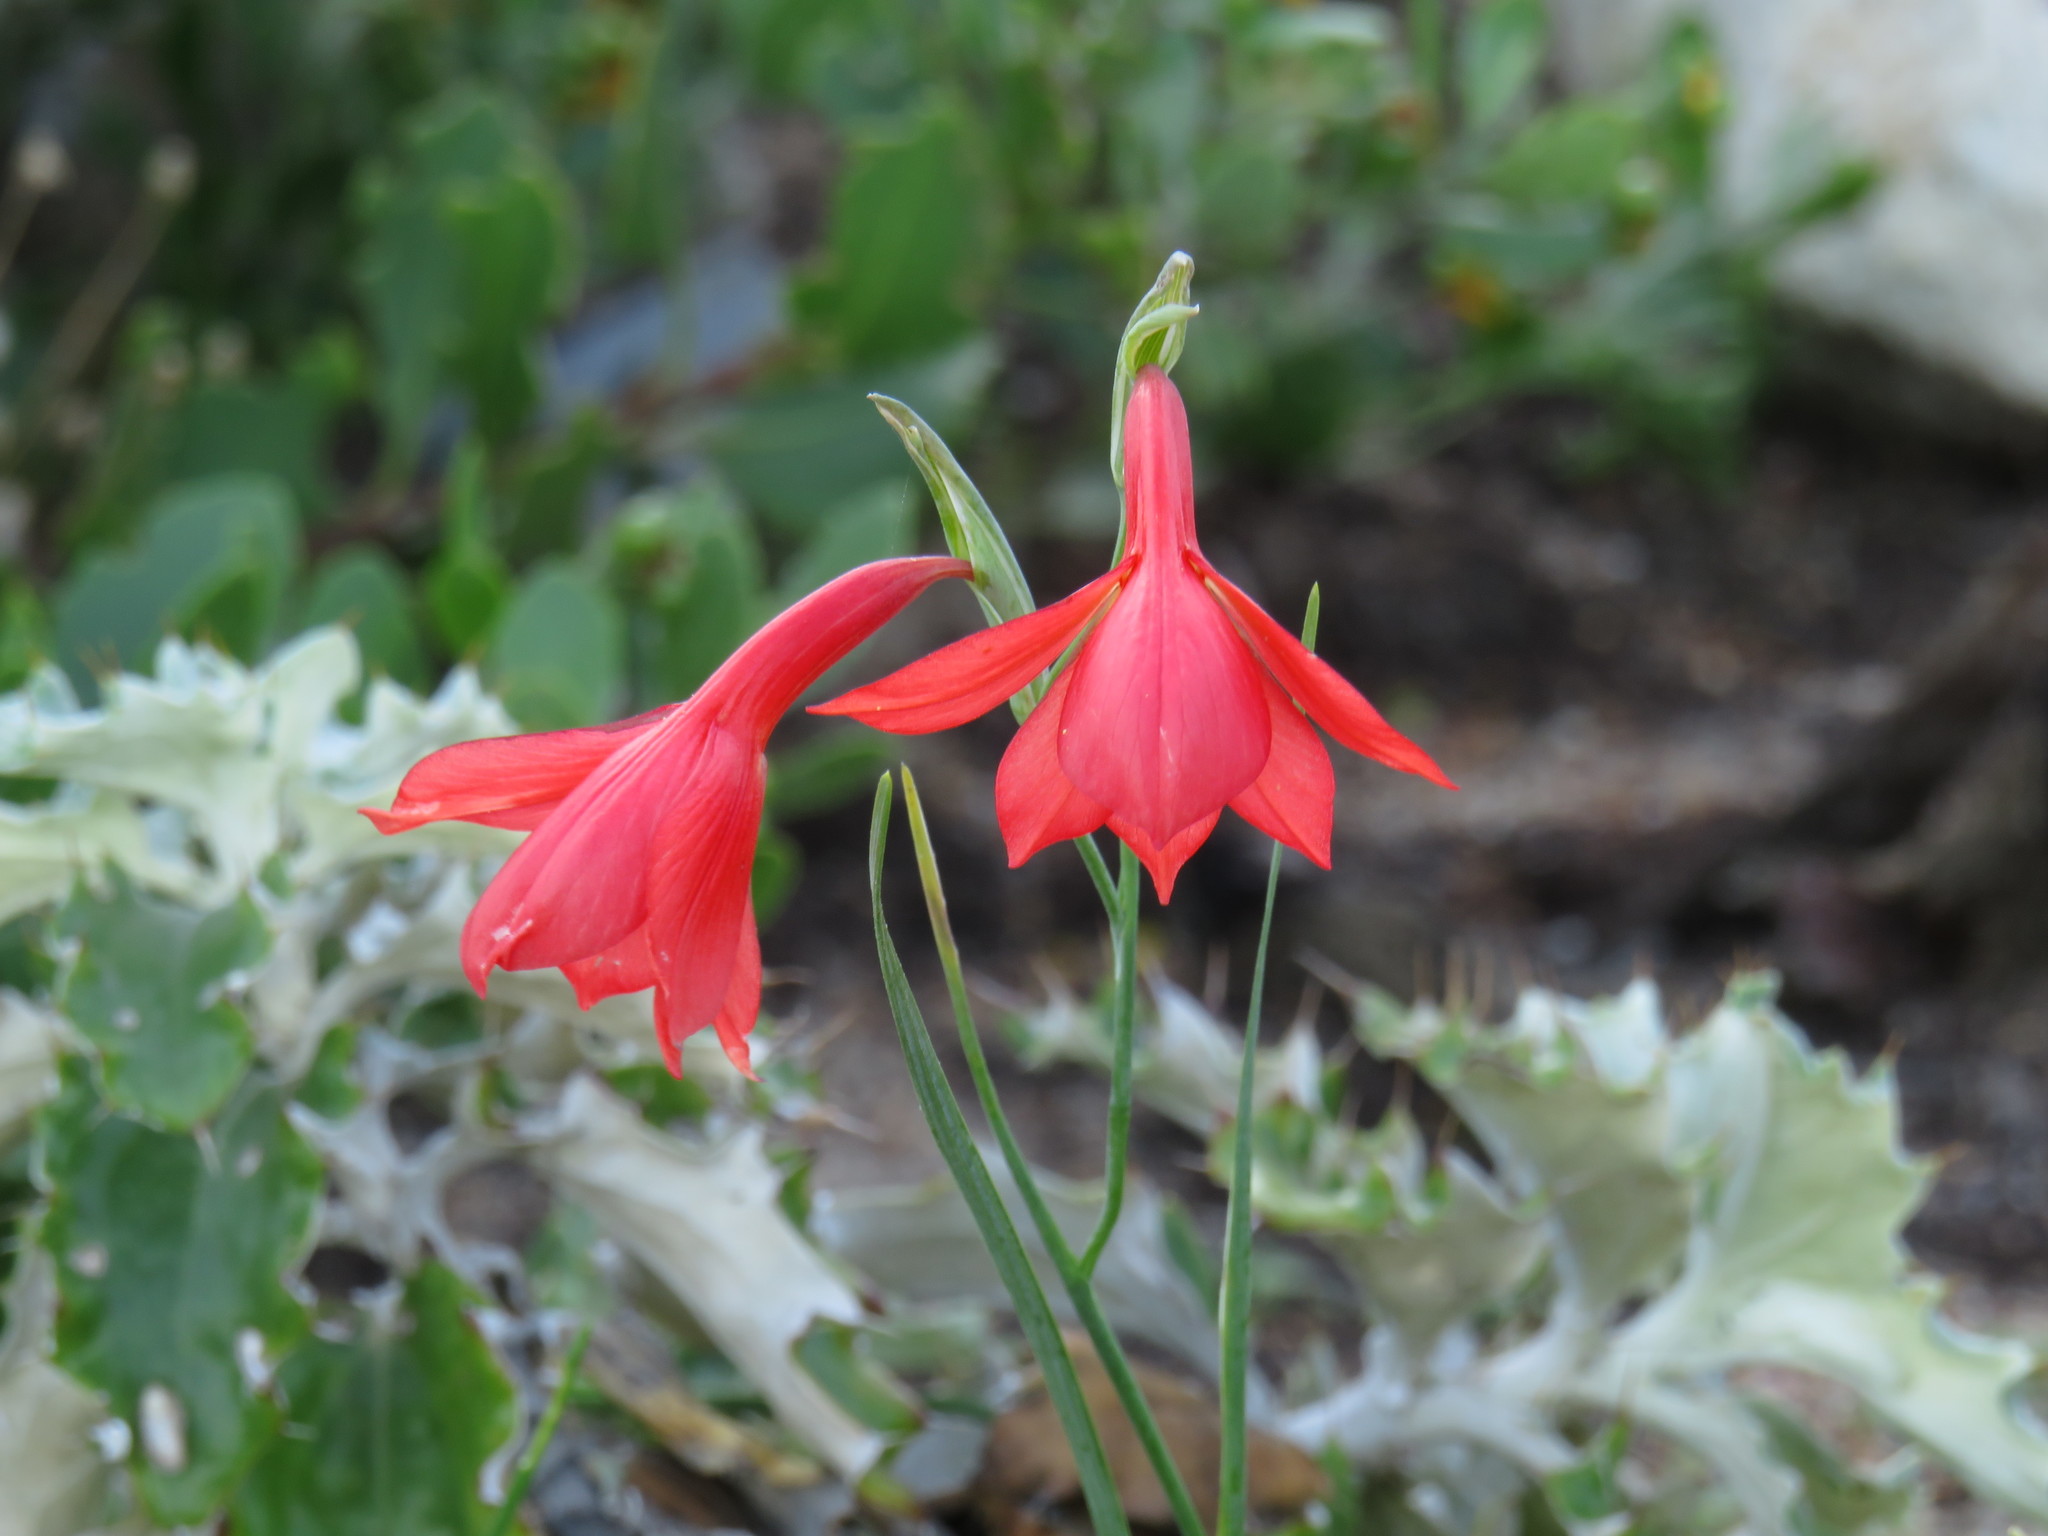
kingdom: Plantae
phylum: Tracheophyta
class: Liliopsida
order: Asparagales
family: Iridaceae
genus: Gladiolus
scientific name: Gladiolus priorii
